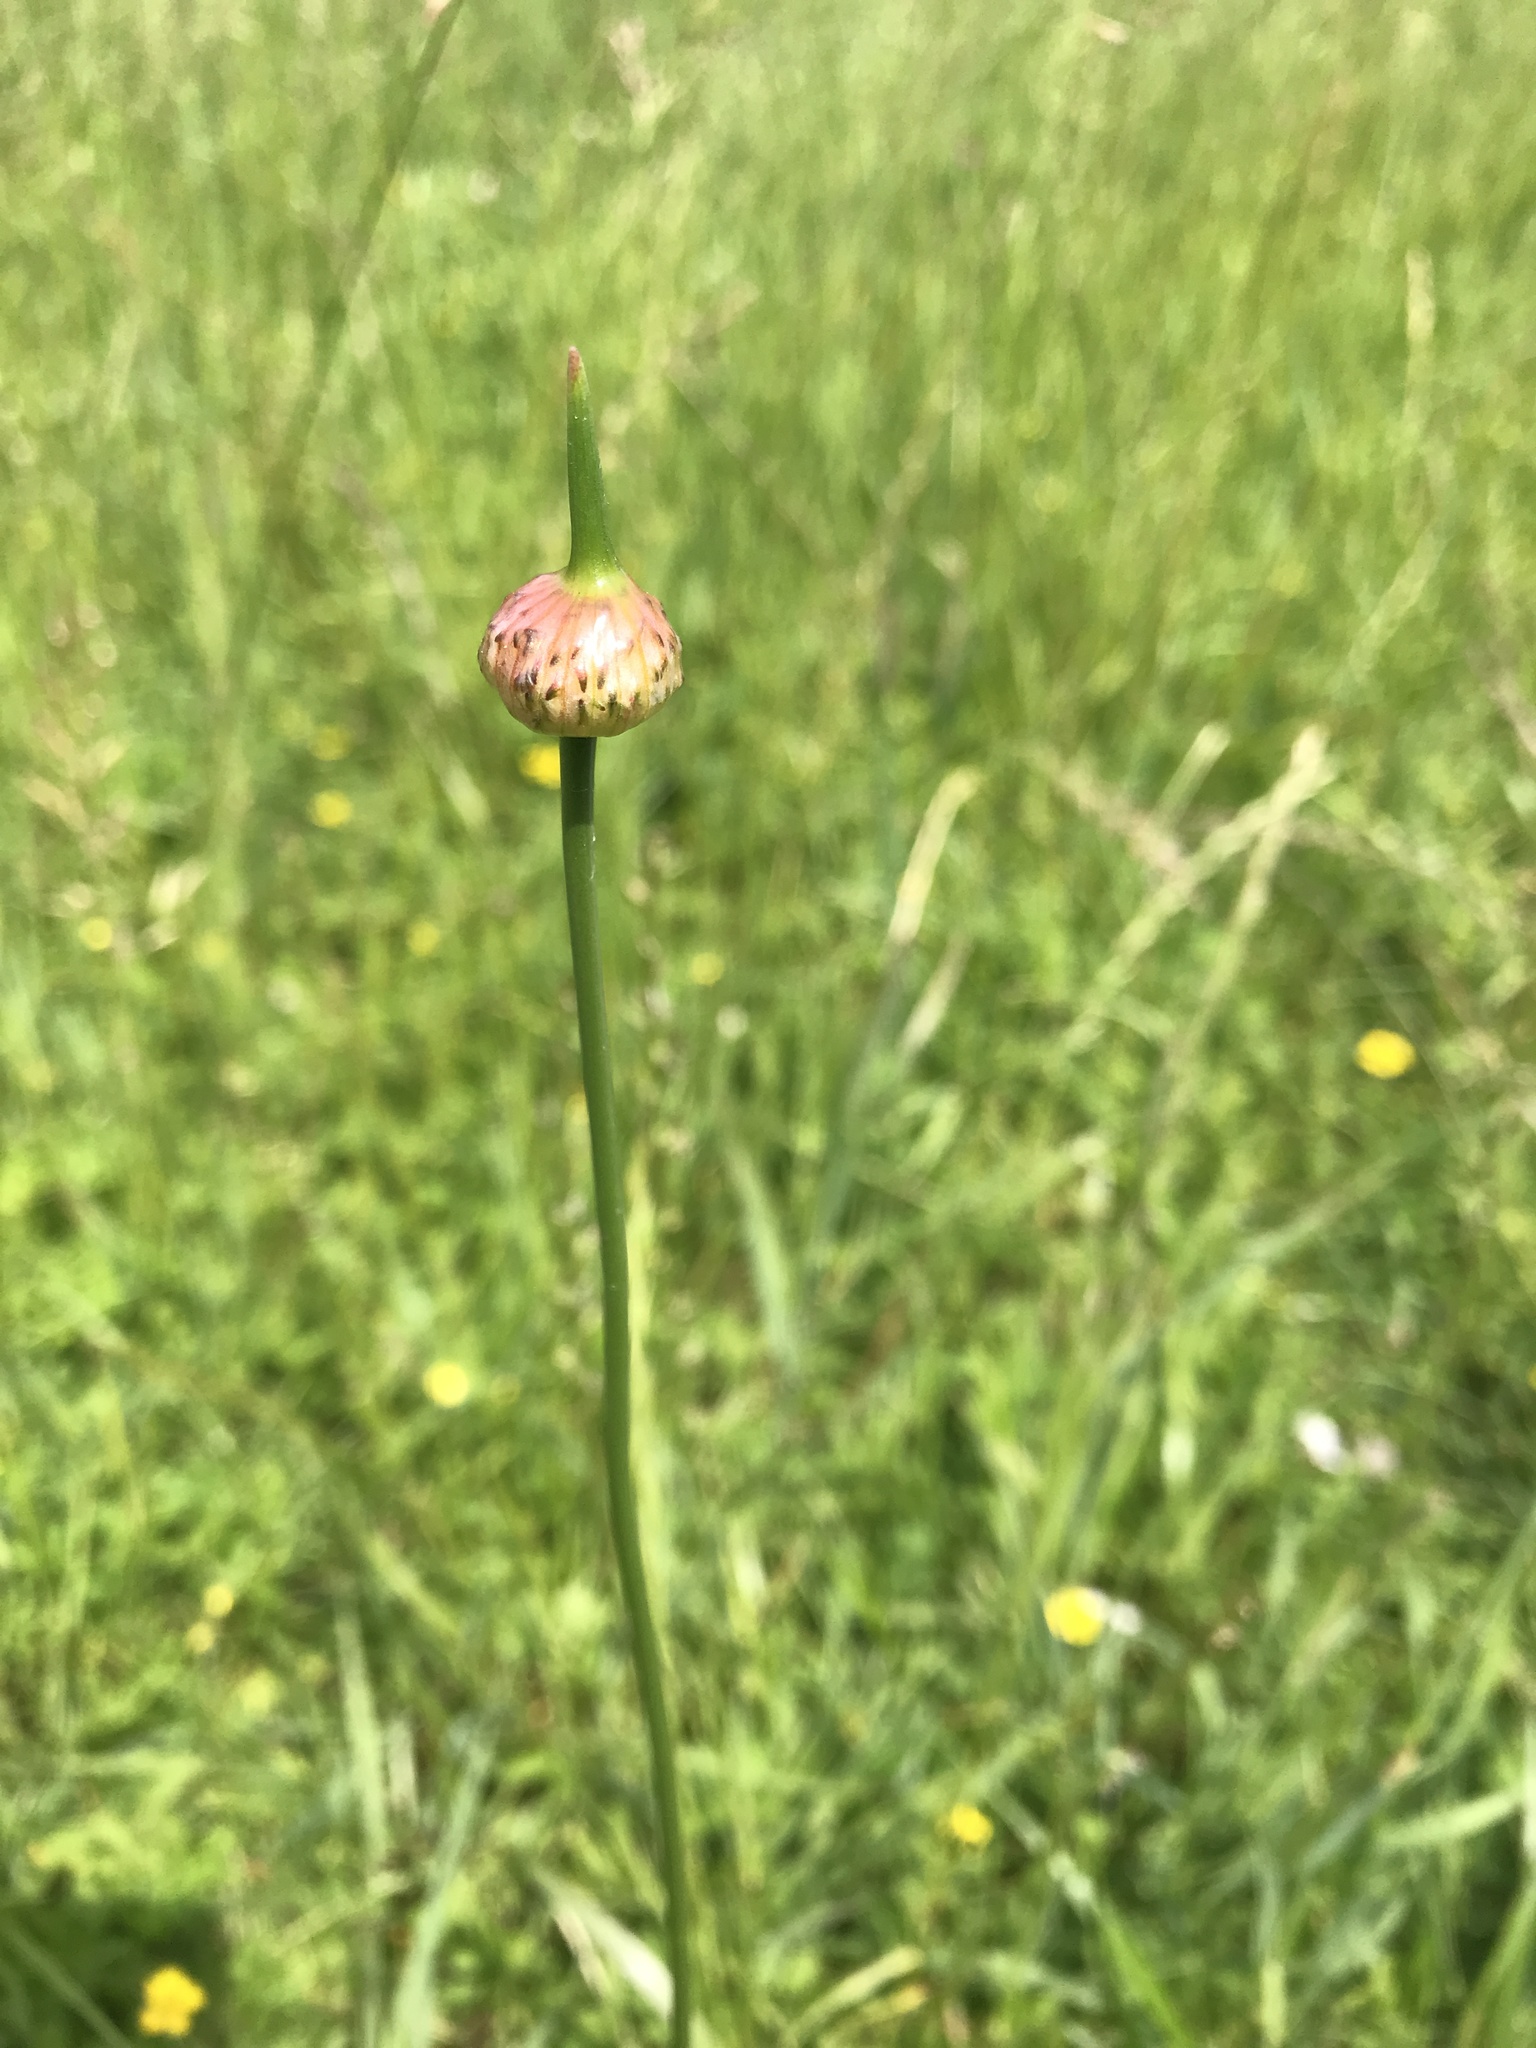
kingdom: Plantae
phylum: Tracheophyta
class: Liliopsida
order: Asparagales
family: Amaryllidaceae
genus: Allium
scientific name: Allium vineale
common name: Crow garlic
